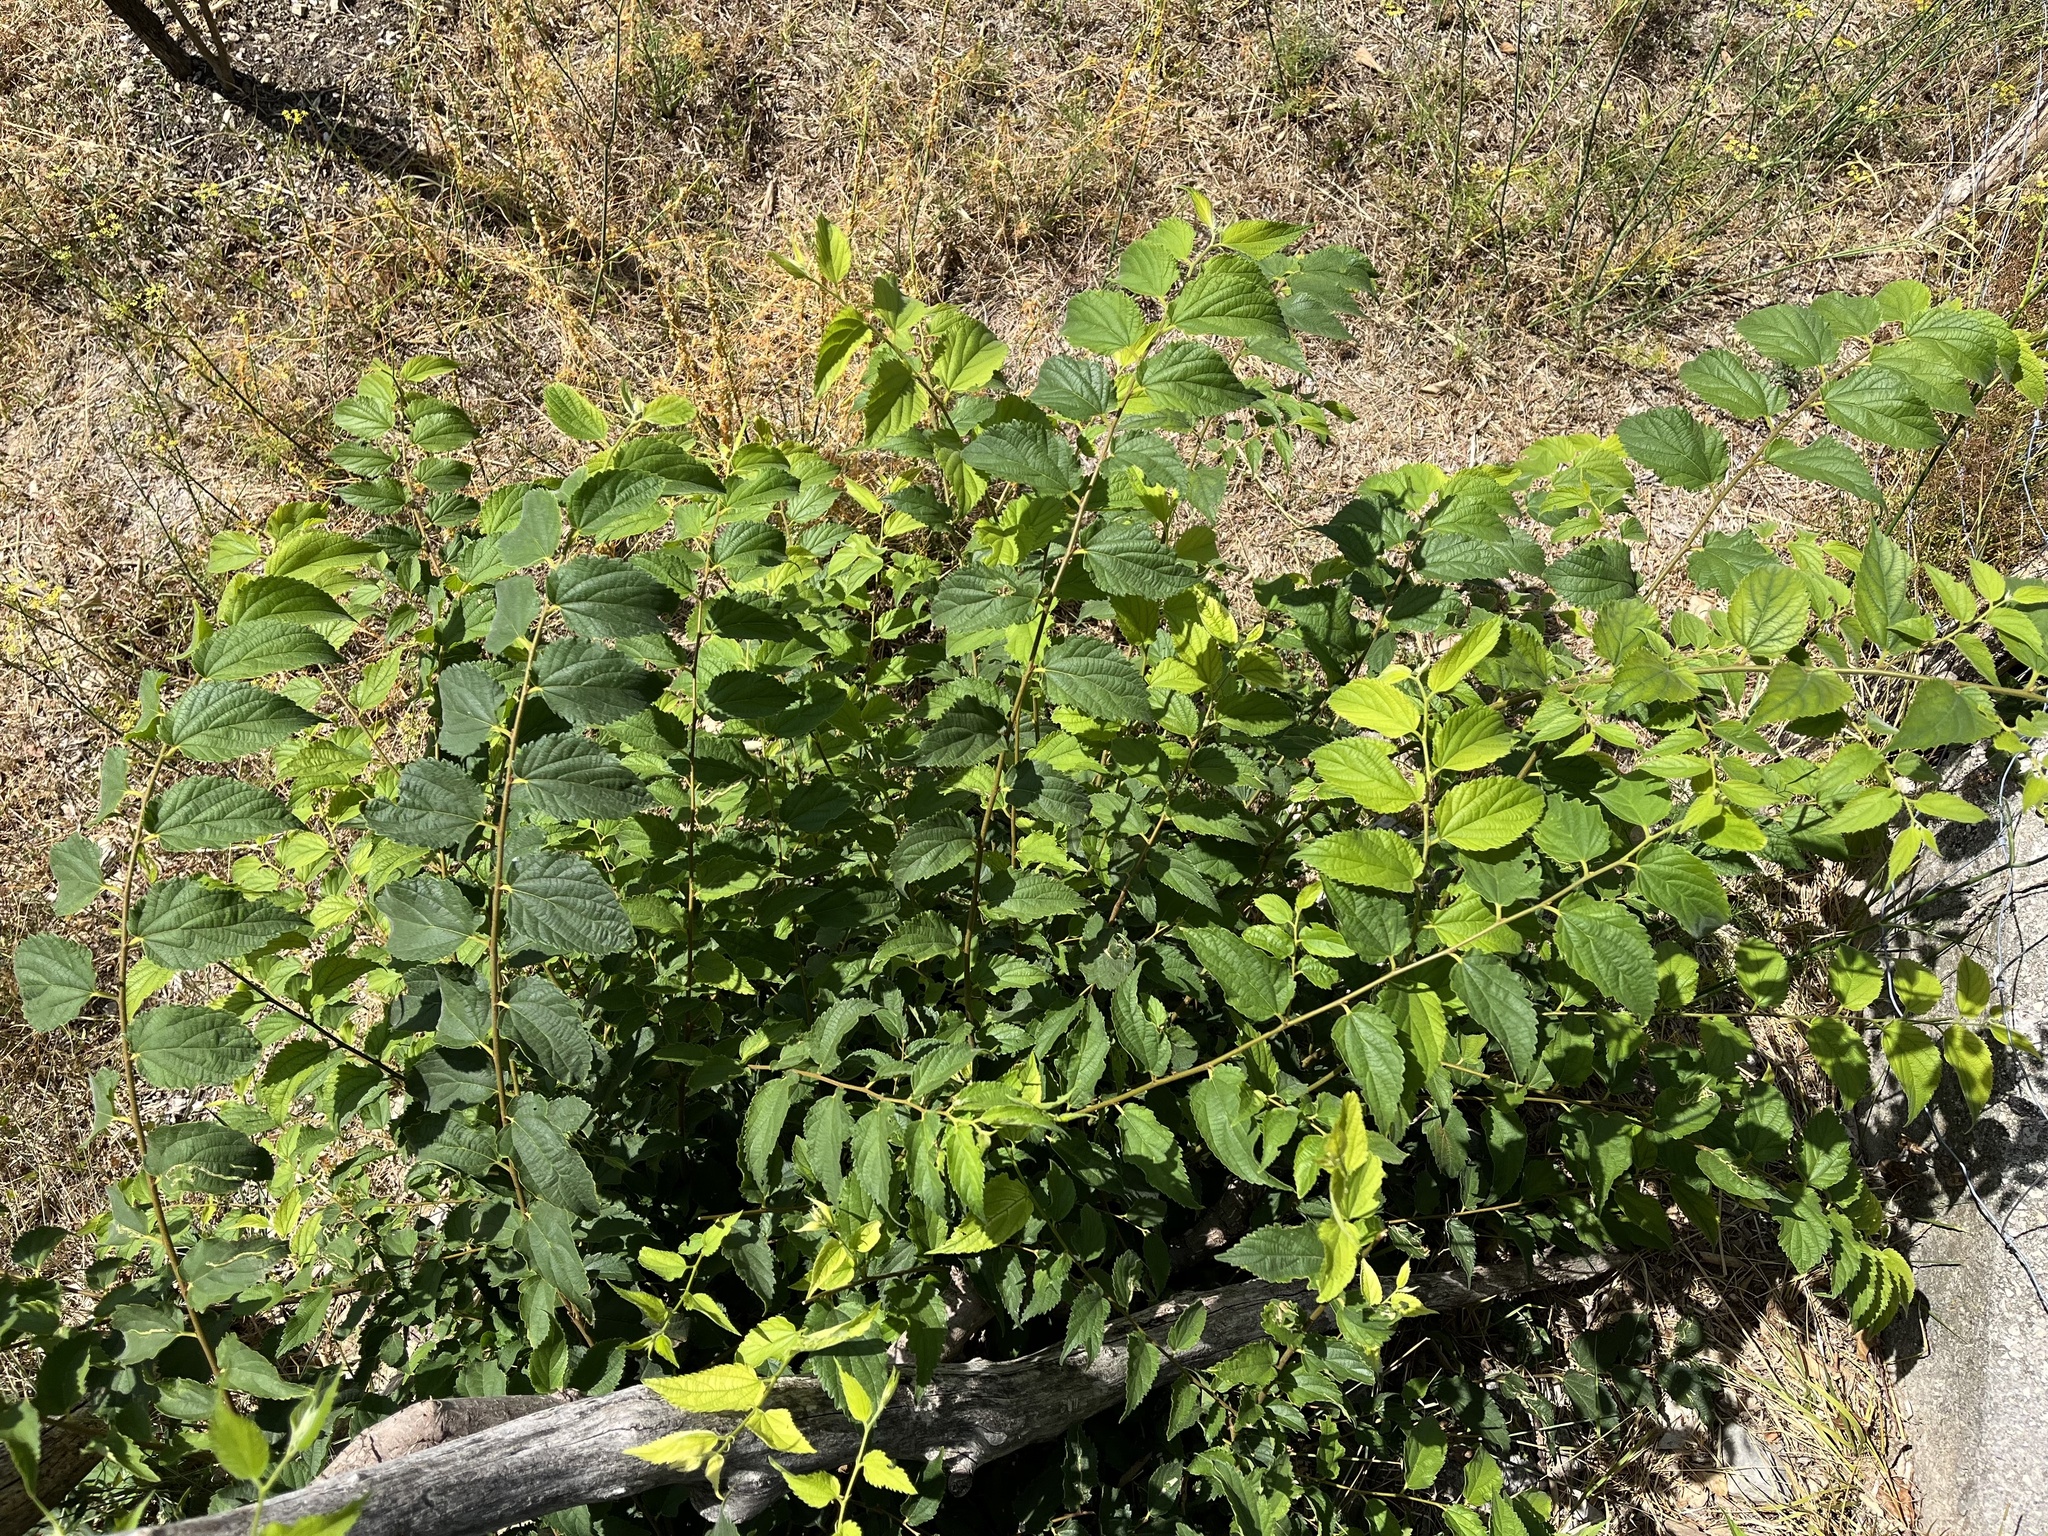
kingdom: Plantae
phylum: Tracheophyta
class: Magnoliopsida
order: Rosales
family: Cannabaceae
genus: Celtis
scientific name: Celtis australis
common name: European hackberry
